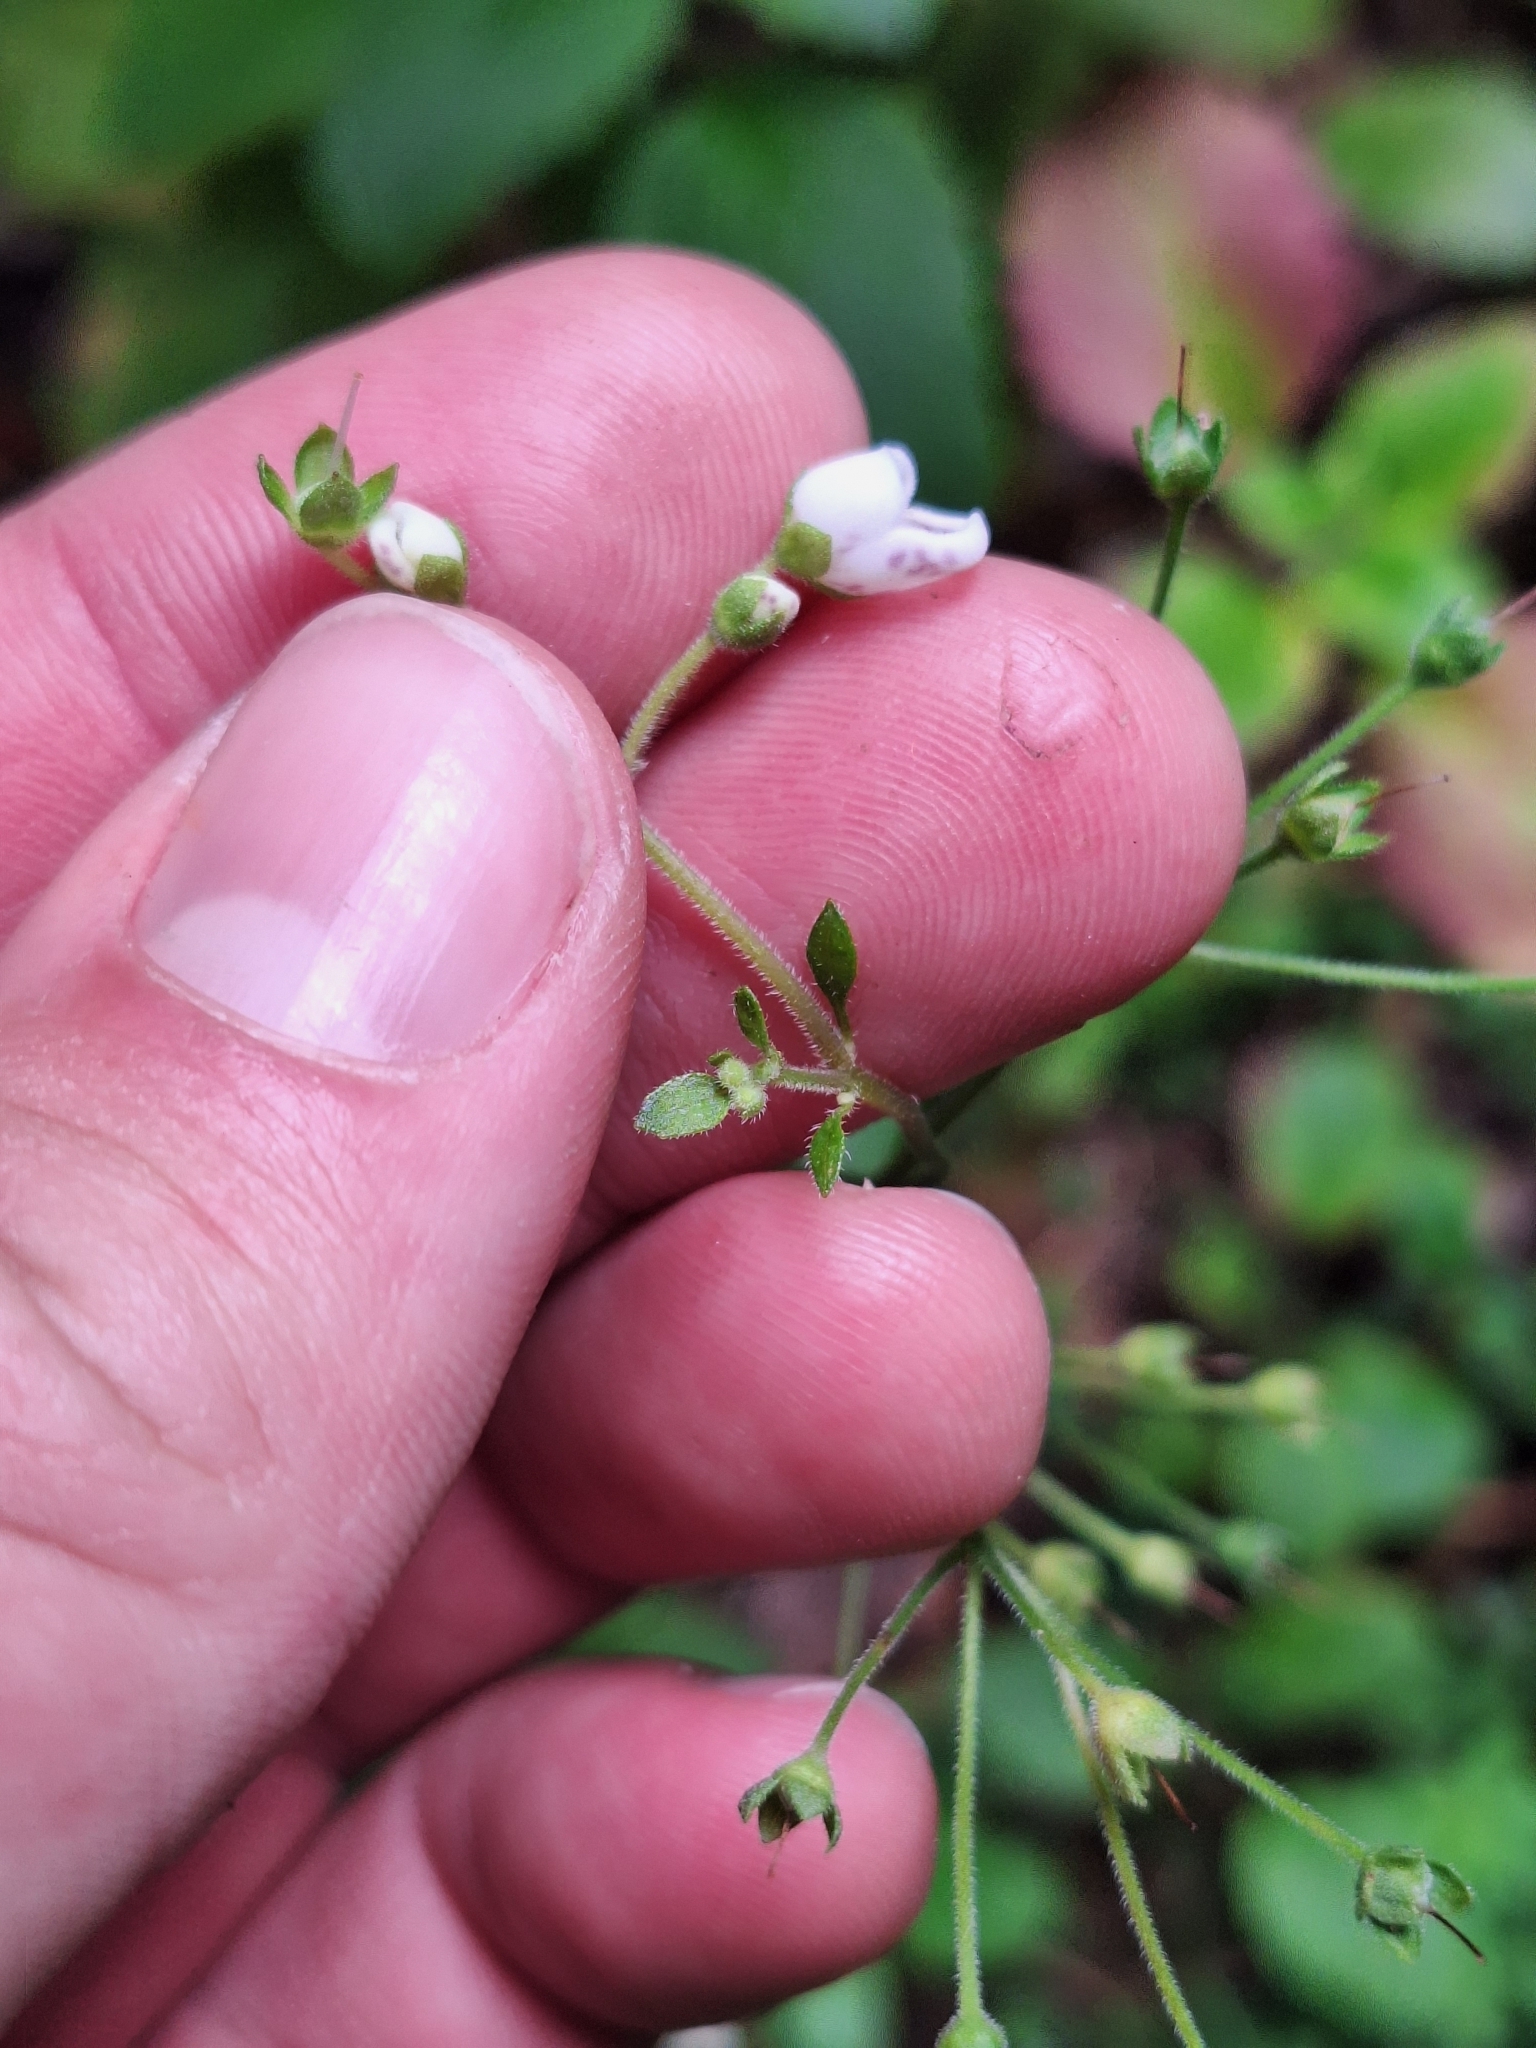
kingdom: Plantae
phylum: Tracheophyta
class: Magnoliopsida
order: Lamiales
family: Calceolariaceae
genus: Jovellana
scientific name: Jovellana sinclairii
